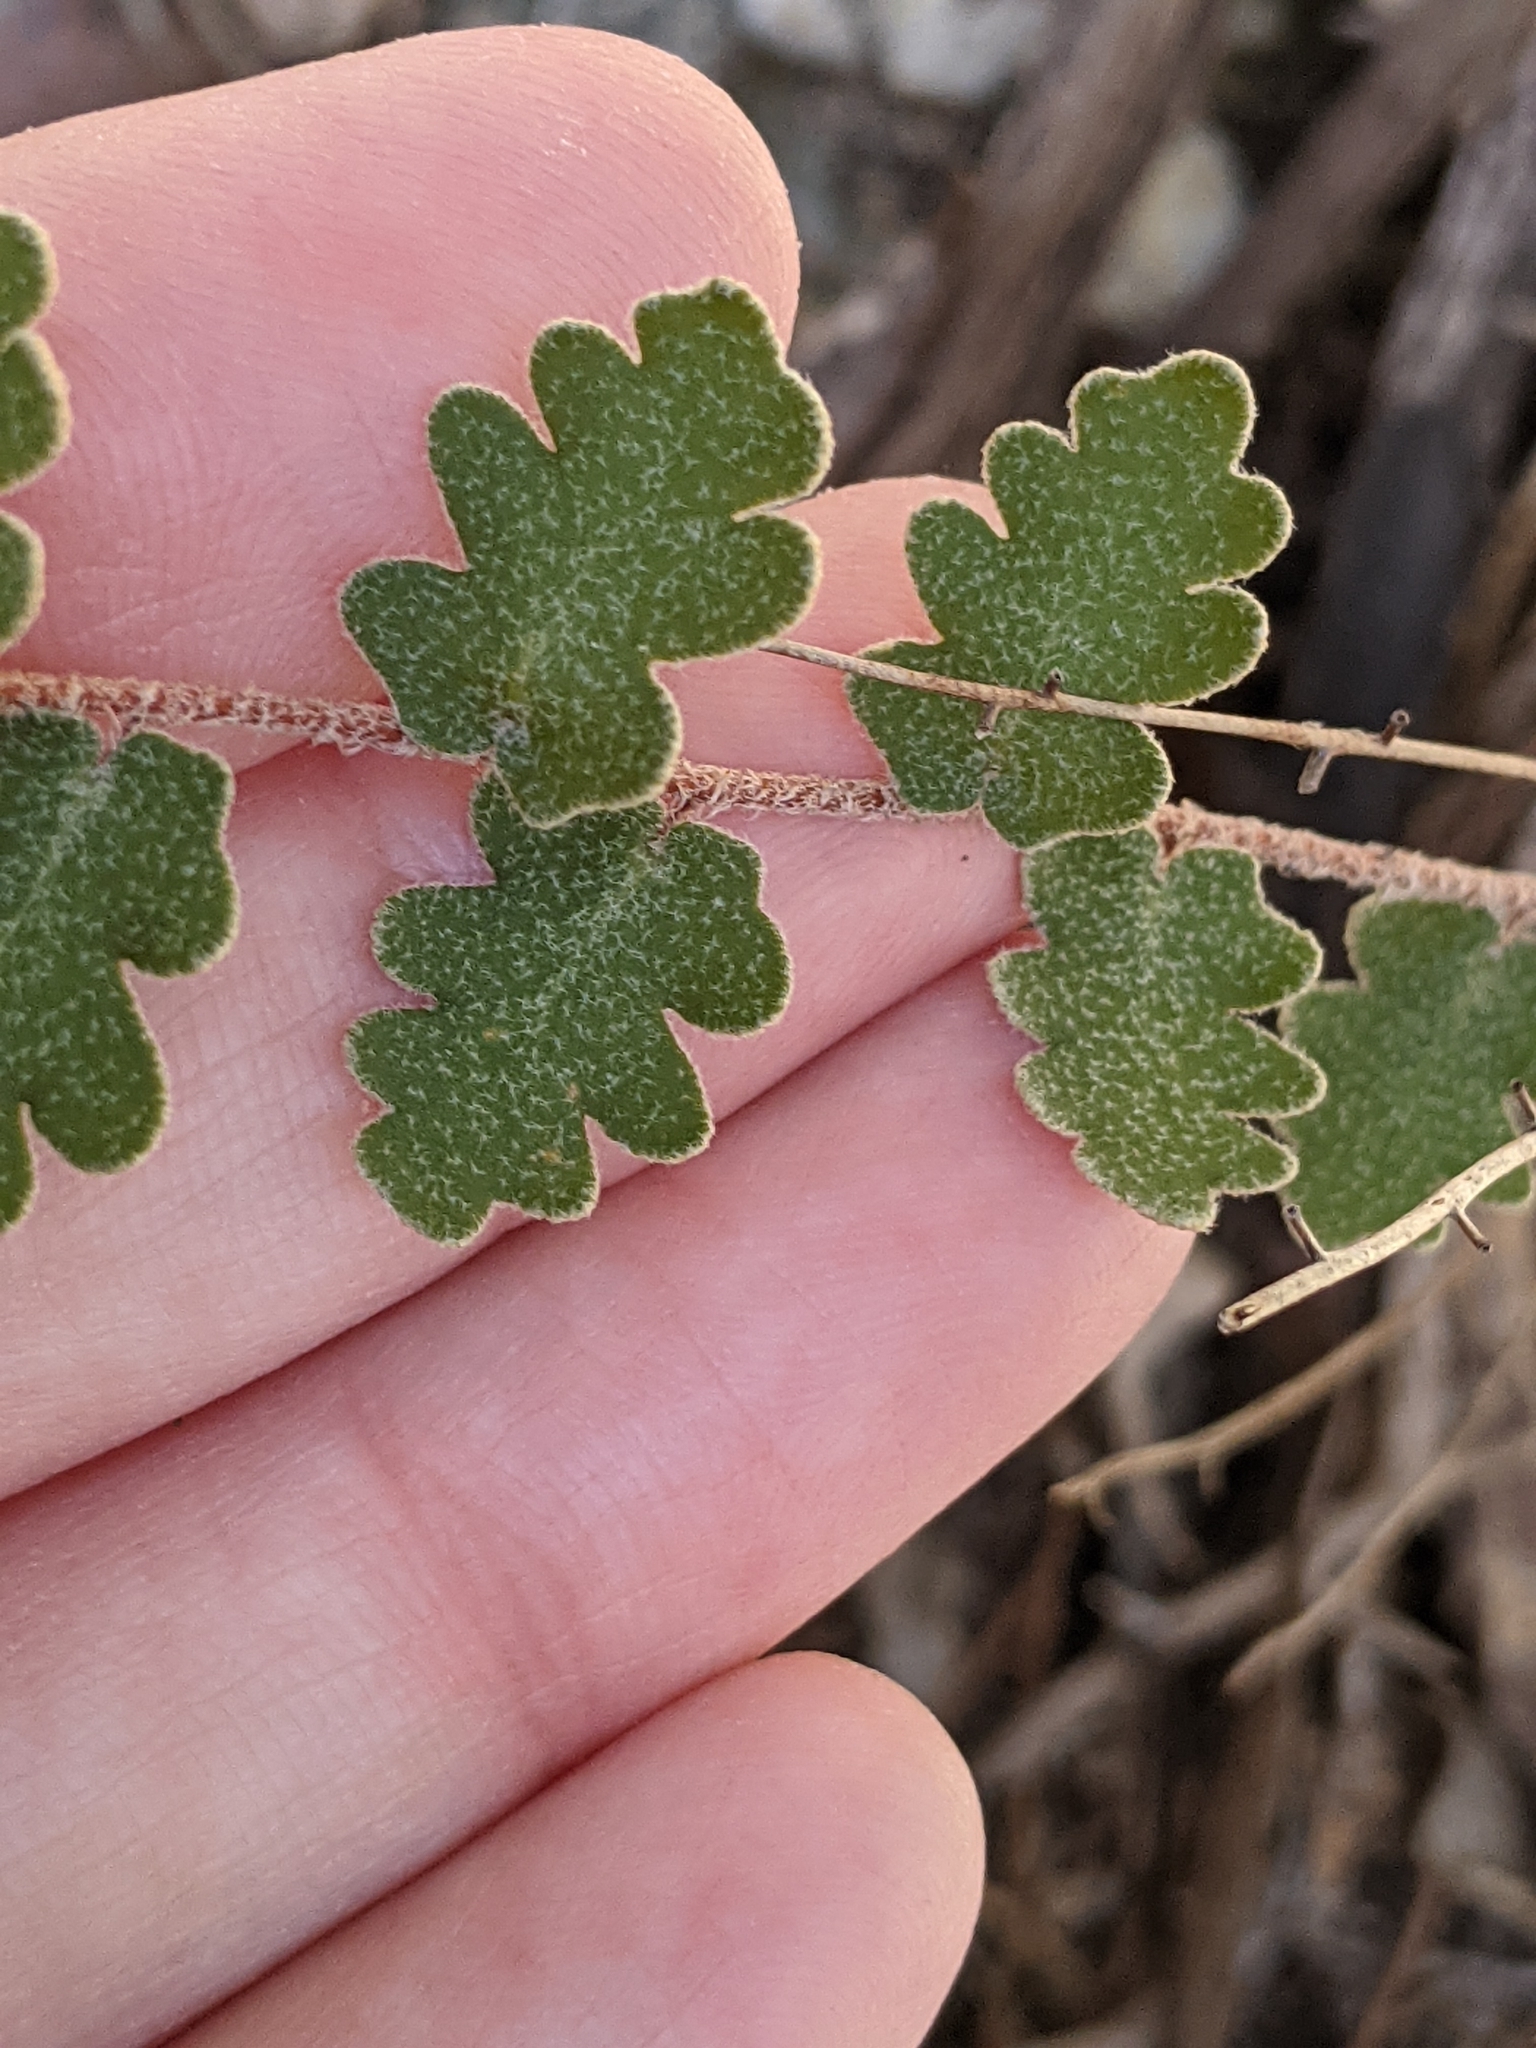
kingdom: Plantae
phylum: Tracheophyta
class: Polypodiopsida
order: Polypodiales
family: Pteridaceae
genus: Astrolepis
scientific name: Astrolepis sinuata
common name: Wavy scaly cloakfern
